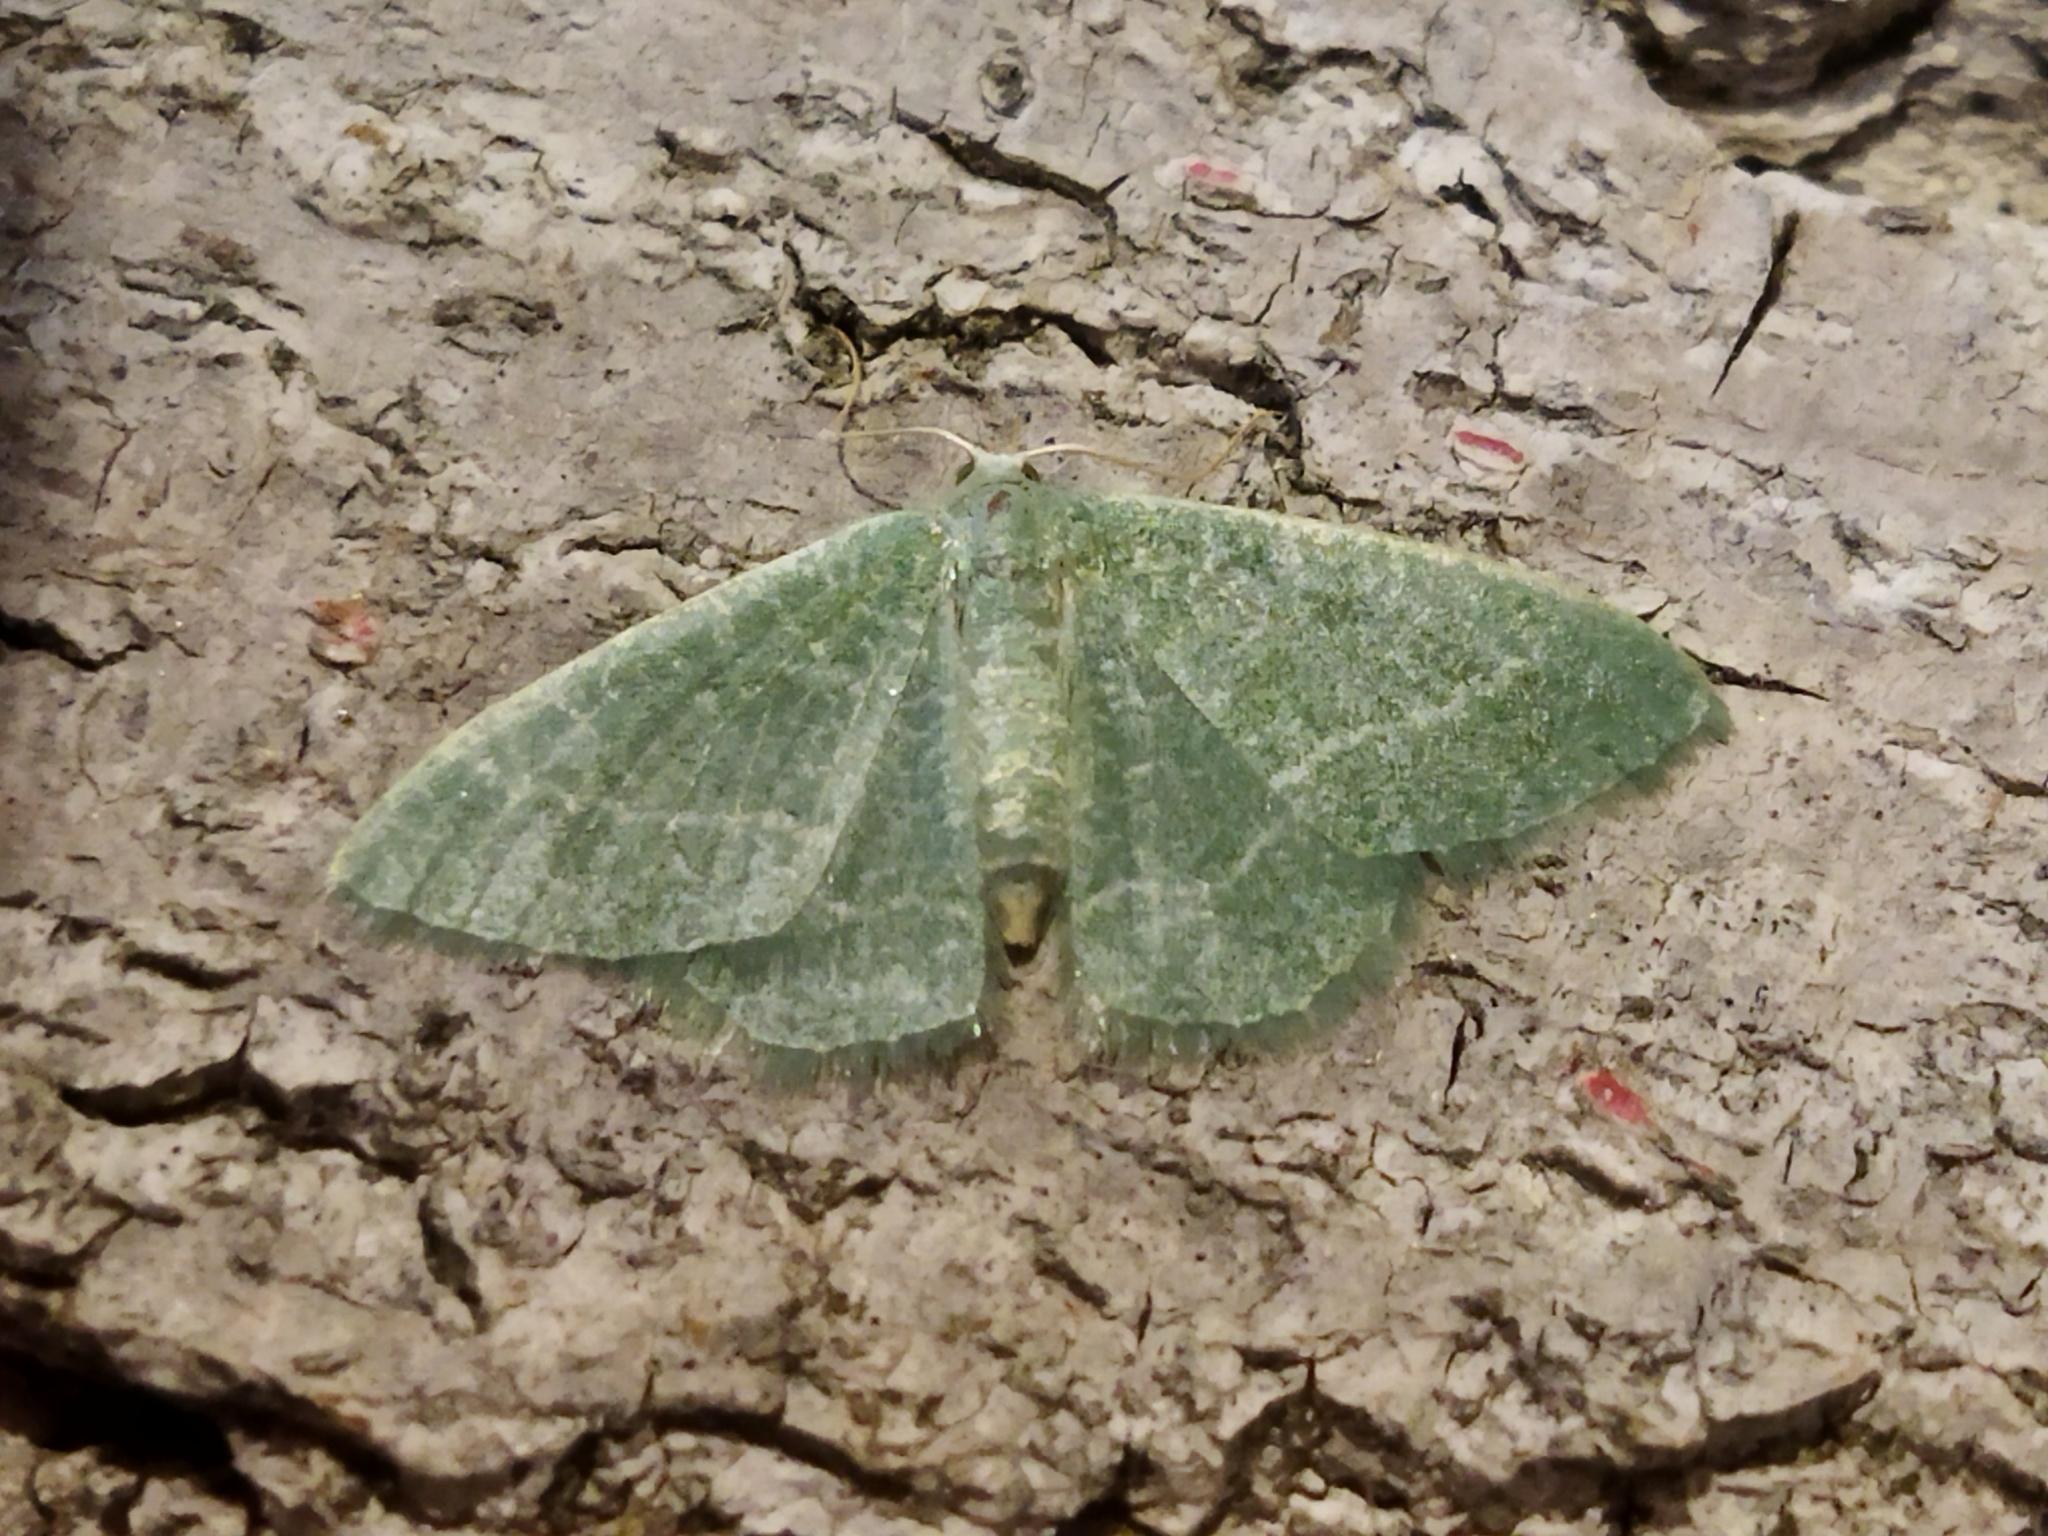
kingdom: Animalia
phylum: Arthropoda
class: Insecta
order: Lepidoptera
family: Geometridae
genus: Chlorissa
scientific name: Chlorissa etruscaria
